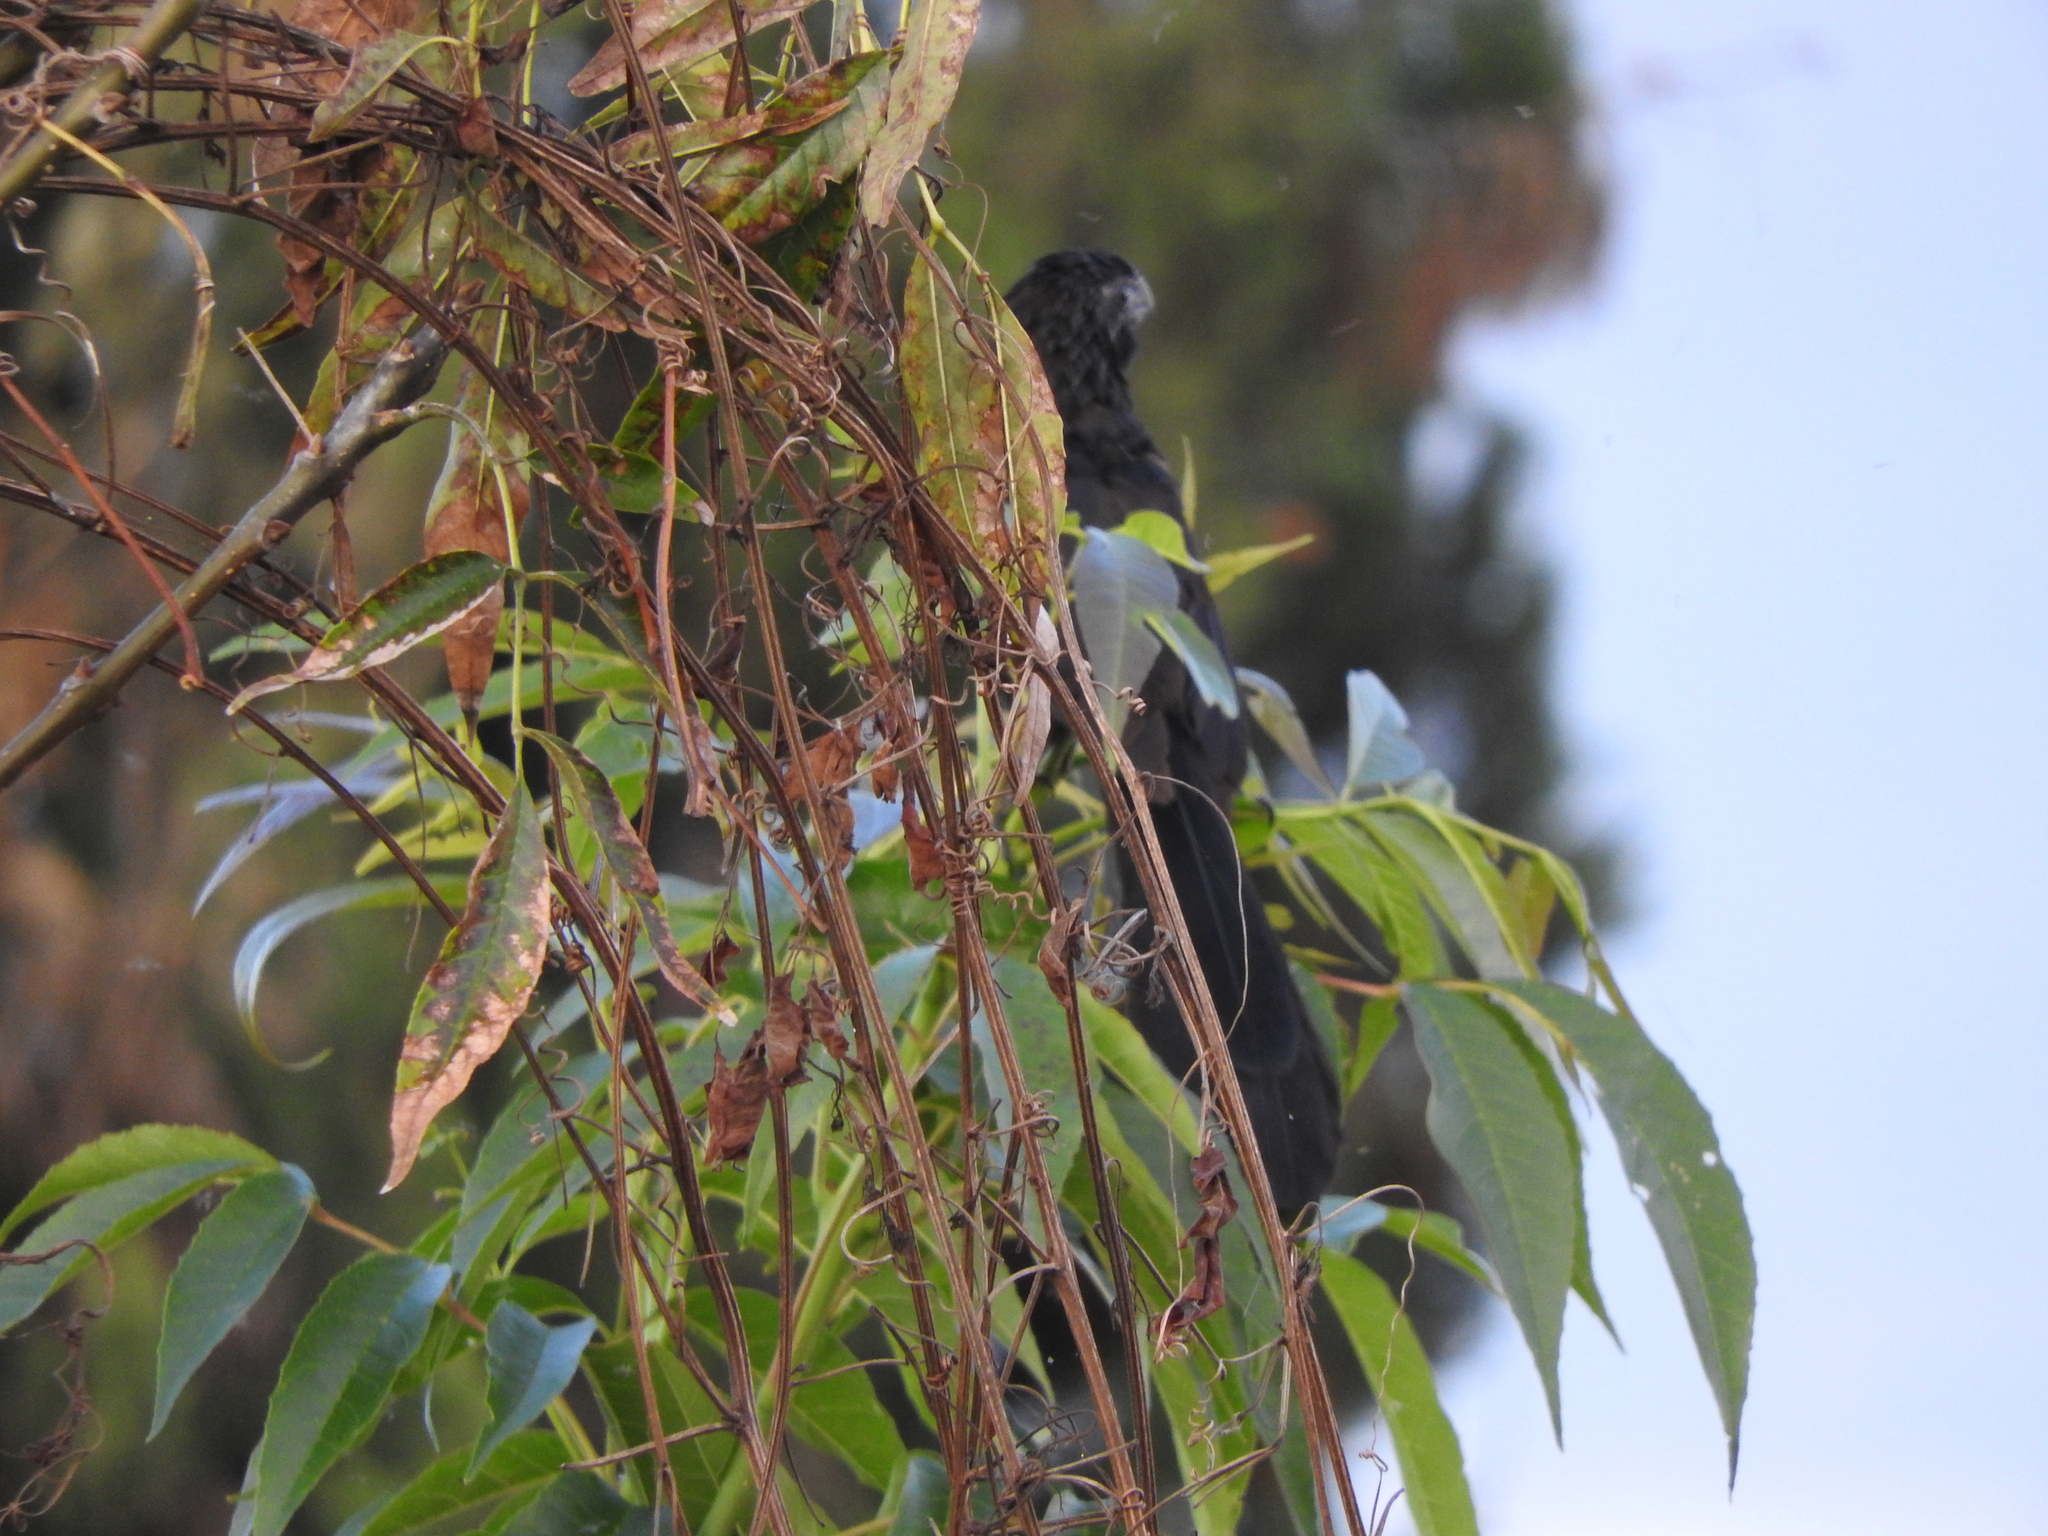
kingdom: Animalia
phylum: Chordata
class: Aves
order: Cuculiformes
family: Cuculidae
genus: Crotophaga
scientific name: Crotophaga sulcirostris
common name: Groove-billed ani
